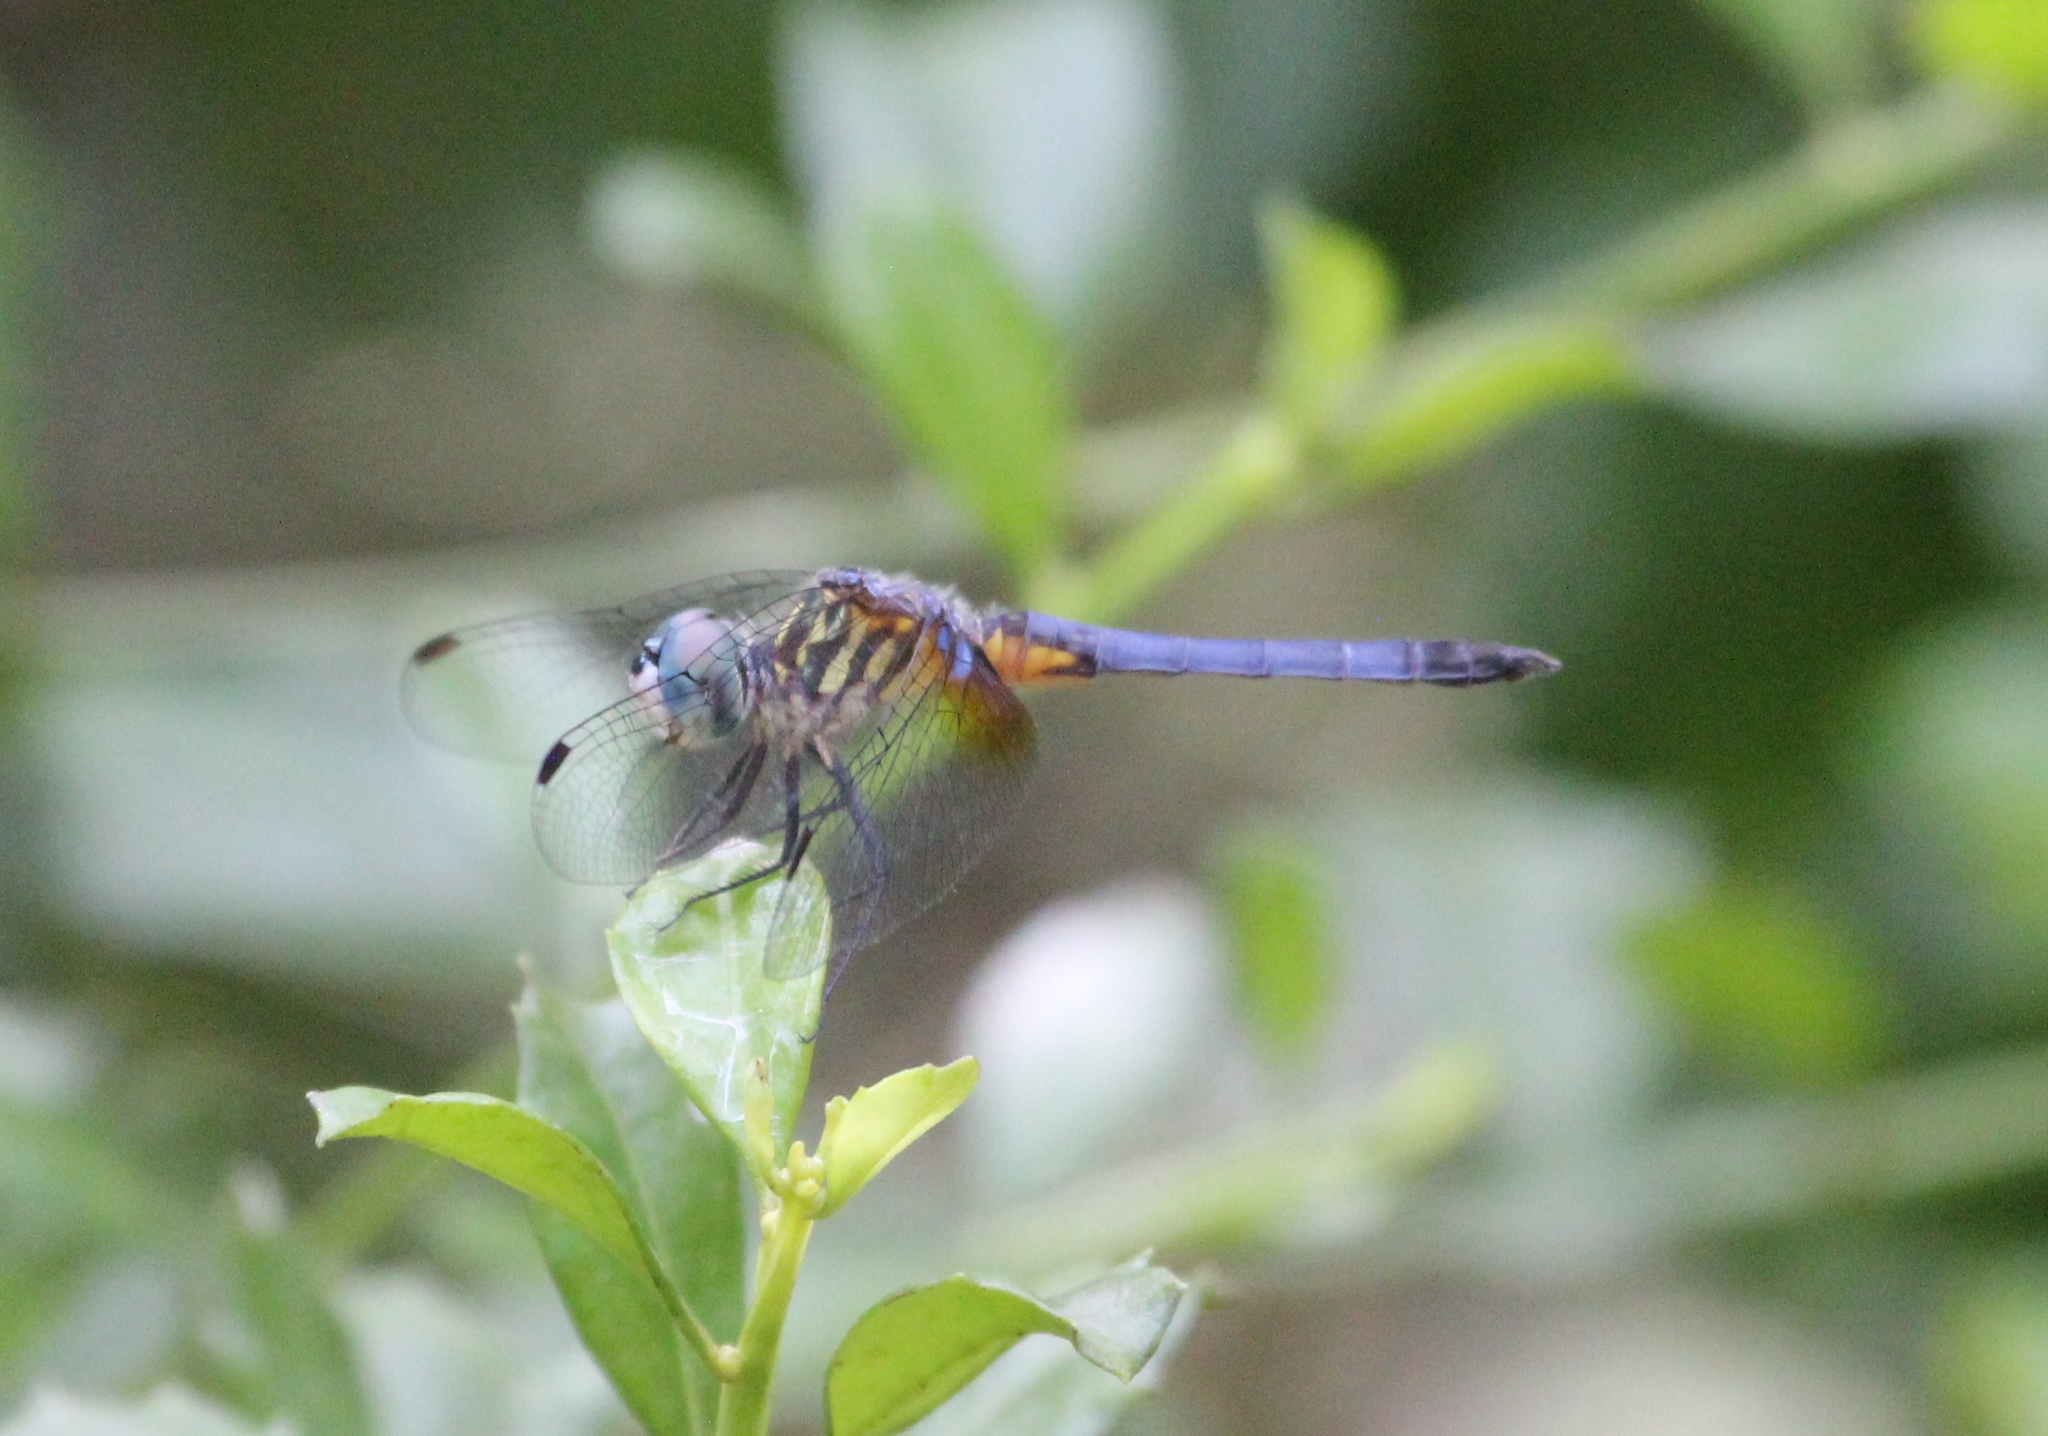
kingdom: Animalia
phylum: Arthropoda
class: Insecta
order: Odonata
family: Libellulidae
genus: Pachydiplax
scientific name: Pachydiplax longipennis
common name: Blue dasher
